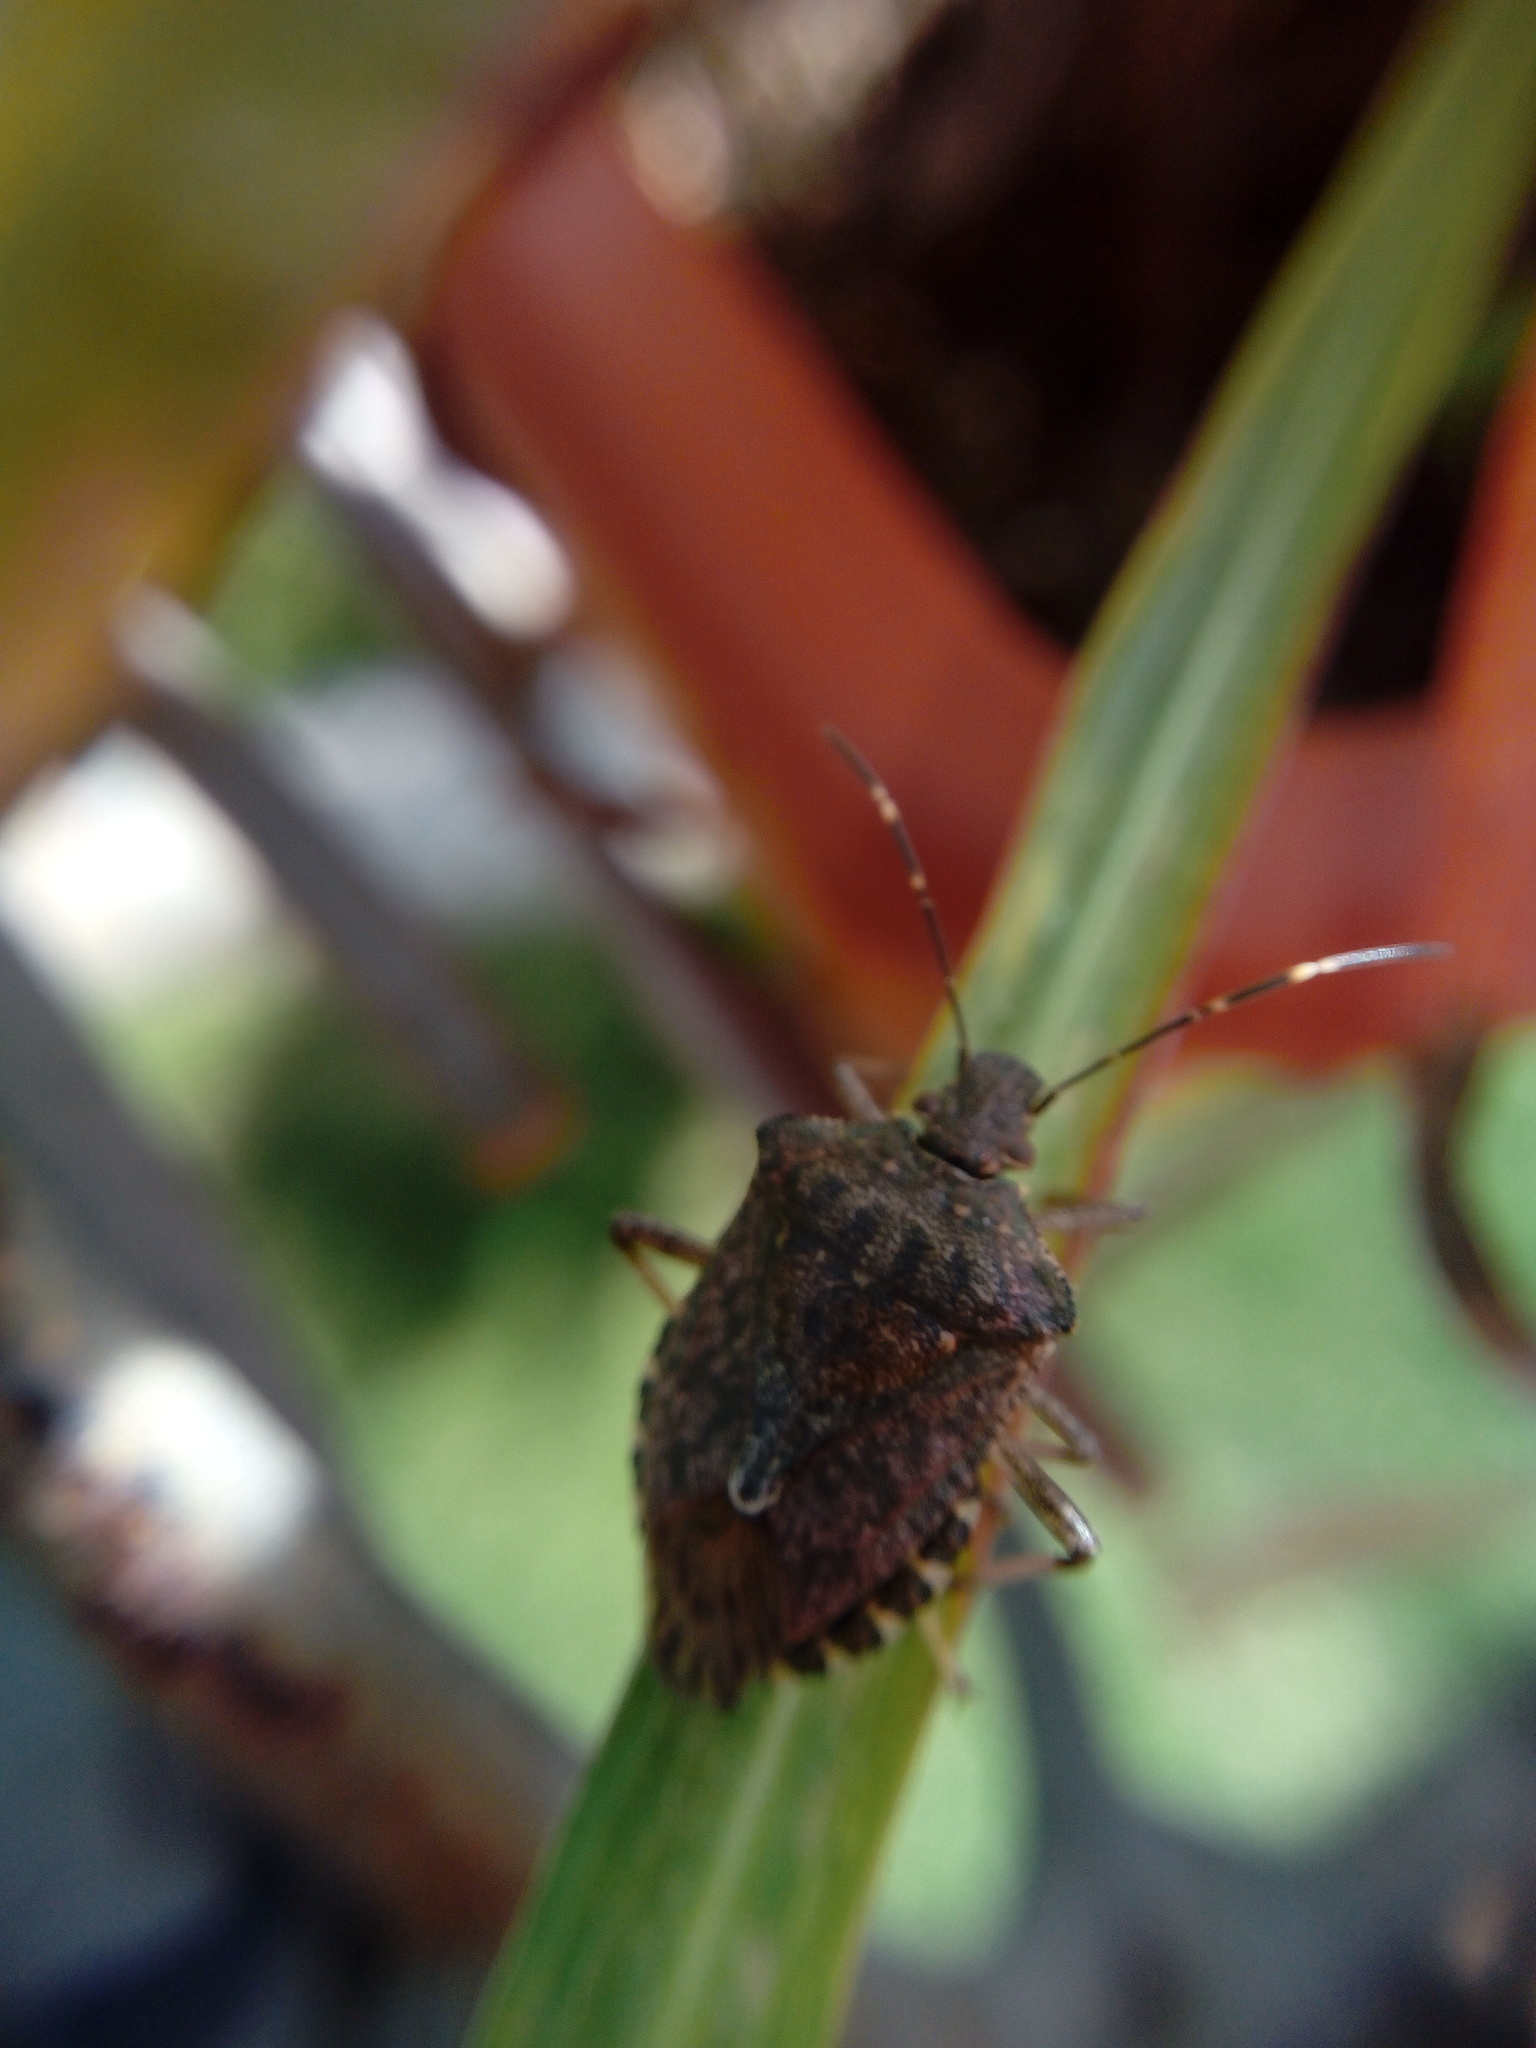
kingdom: Animalia
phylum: Arthropoda
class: Insecta
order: Hemiptera
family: Pentatomidae
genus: Halyomorpha
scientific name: Halyomorpha halys
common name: Brown marmorated stink bug
